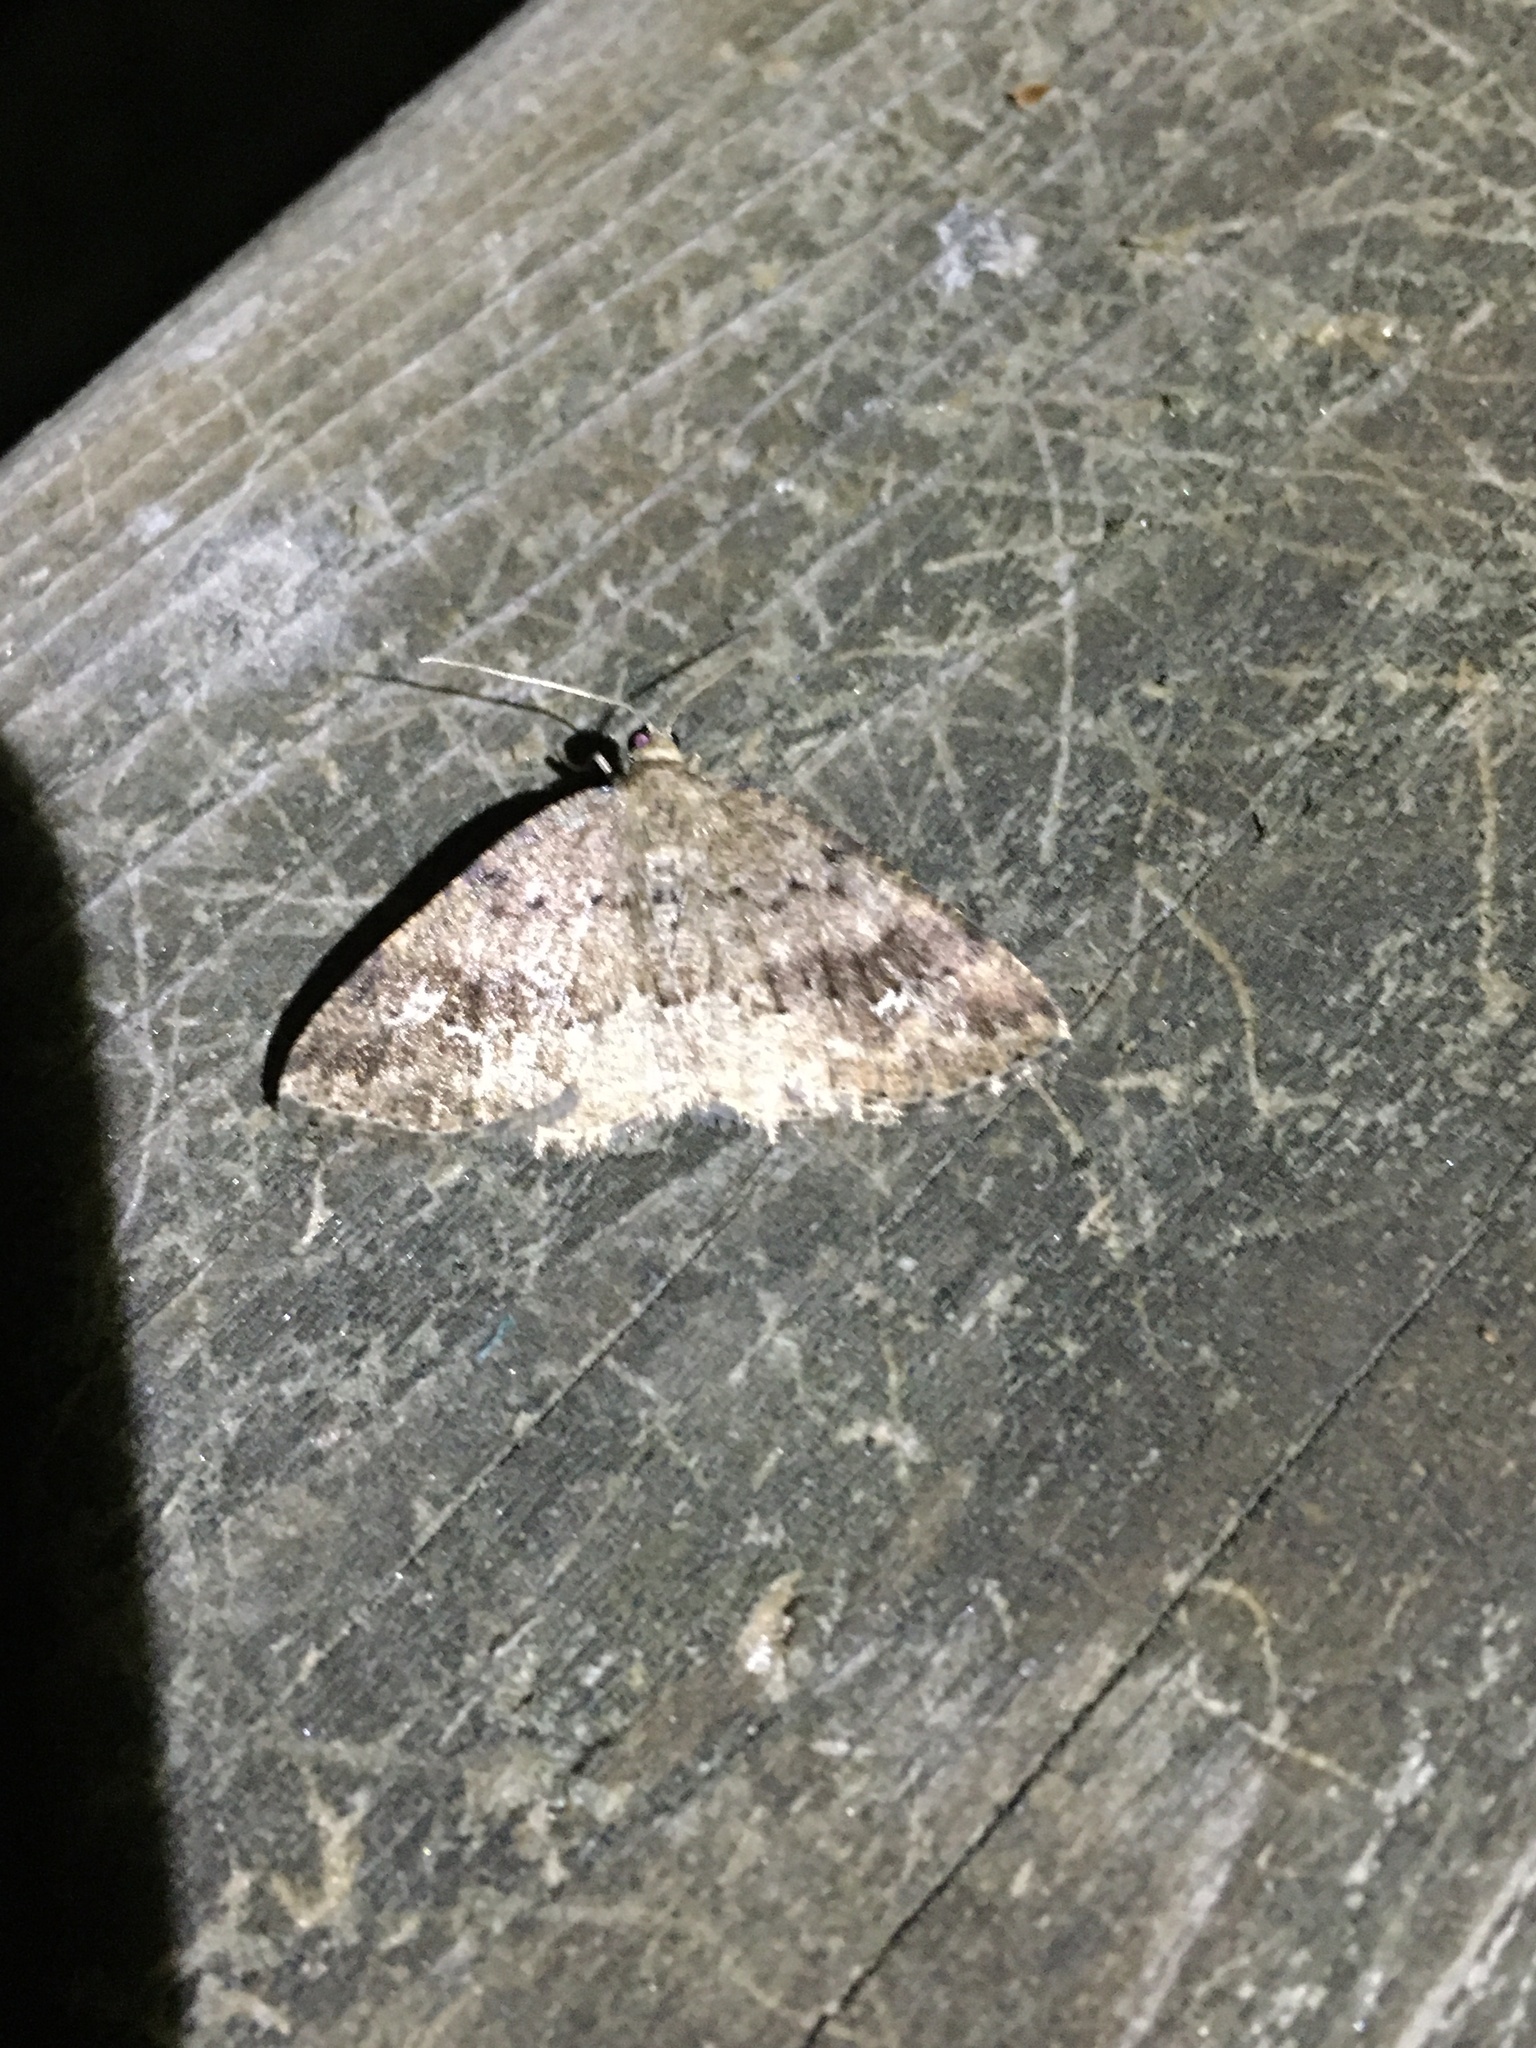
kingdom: Animalia
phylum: Arthropoda
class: Insecta
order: Lepidoptera
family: Geometridae
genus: Homochlodes
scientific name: Homochlodes fritillaria
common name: Pale homochlodes
